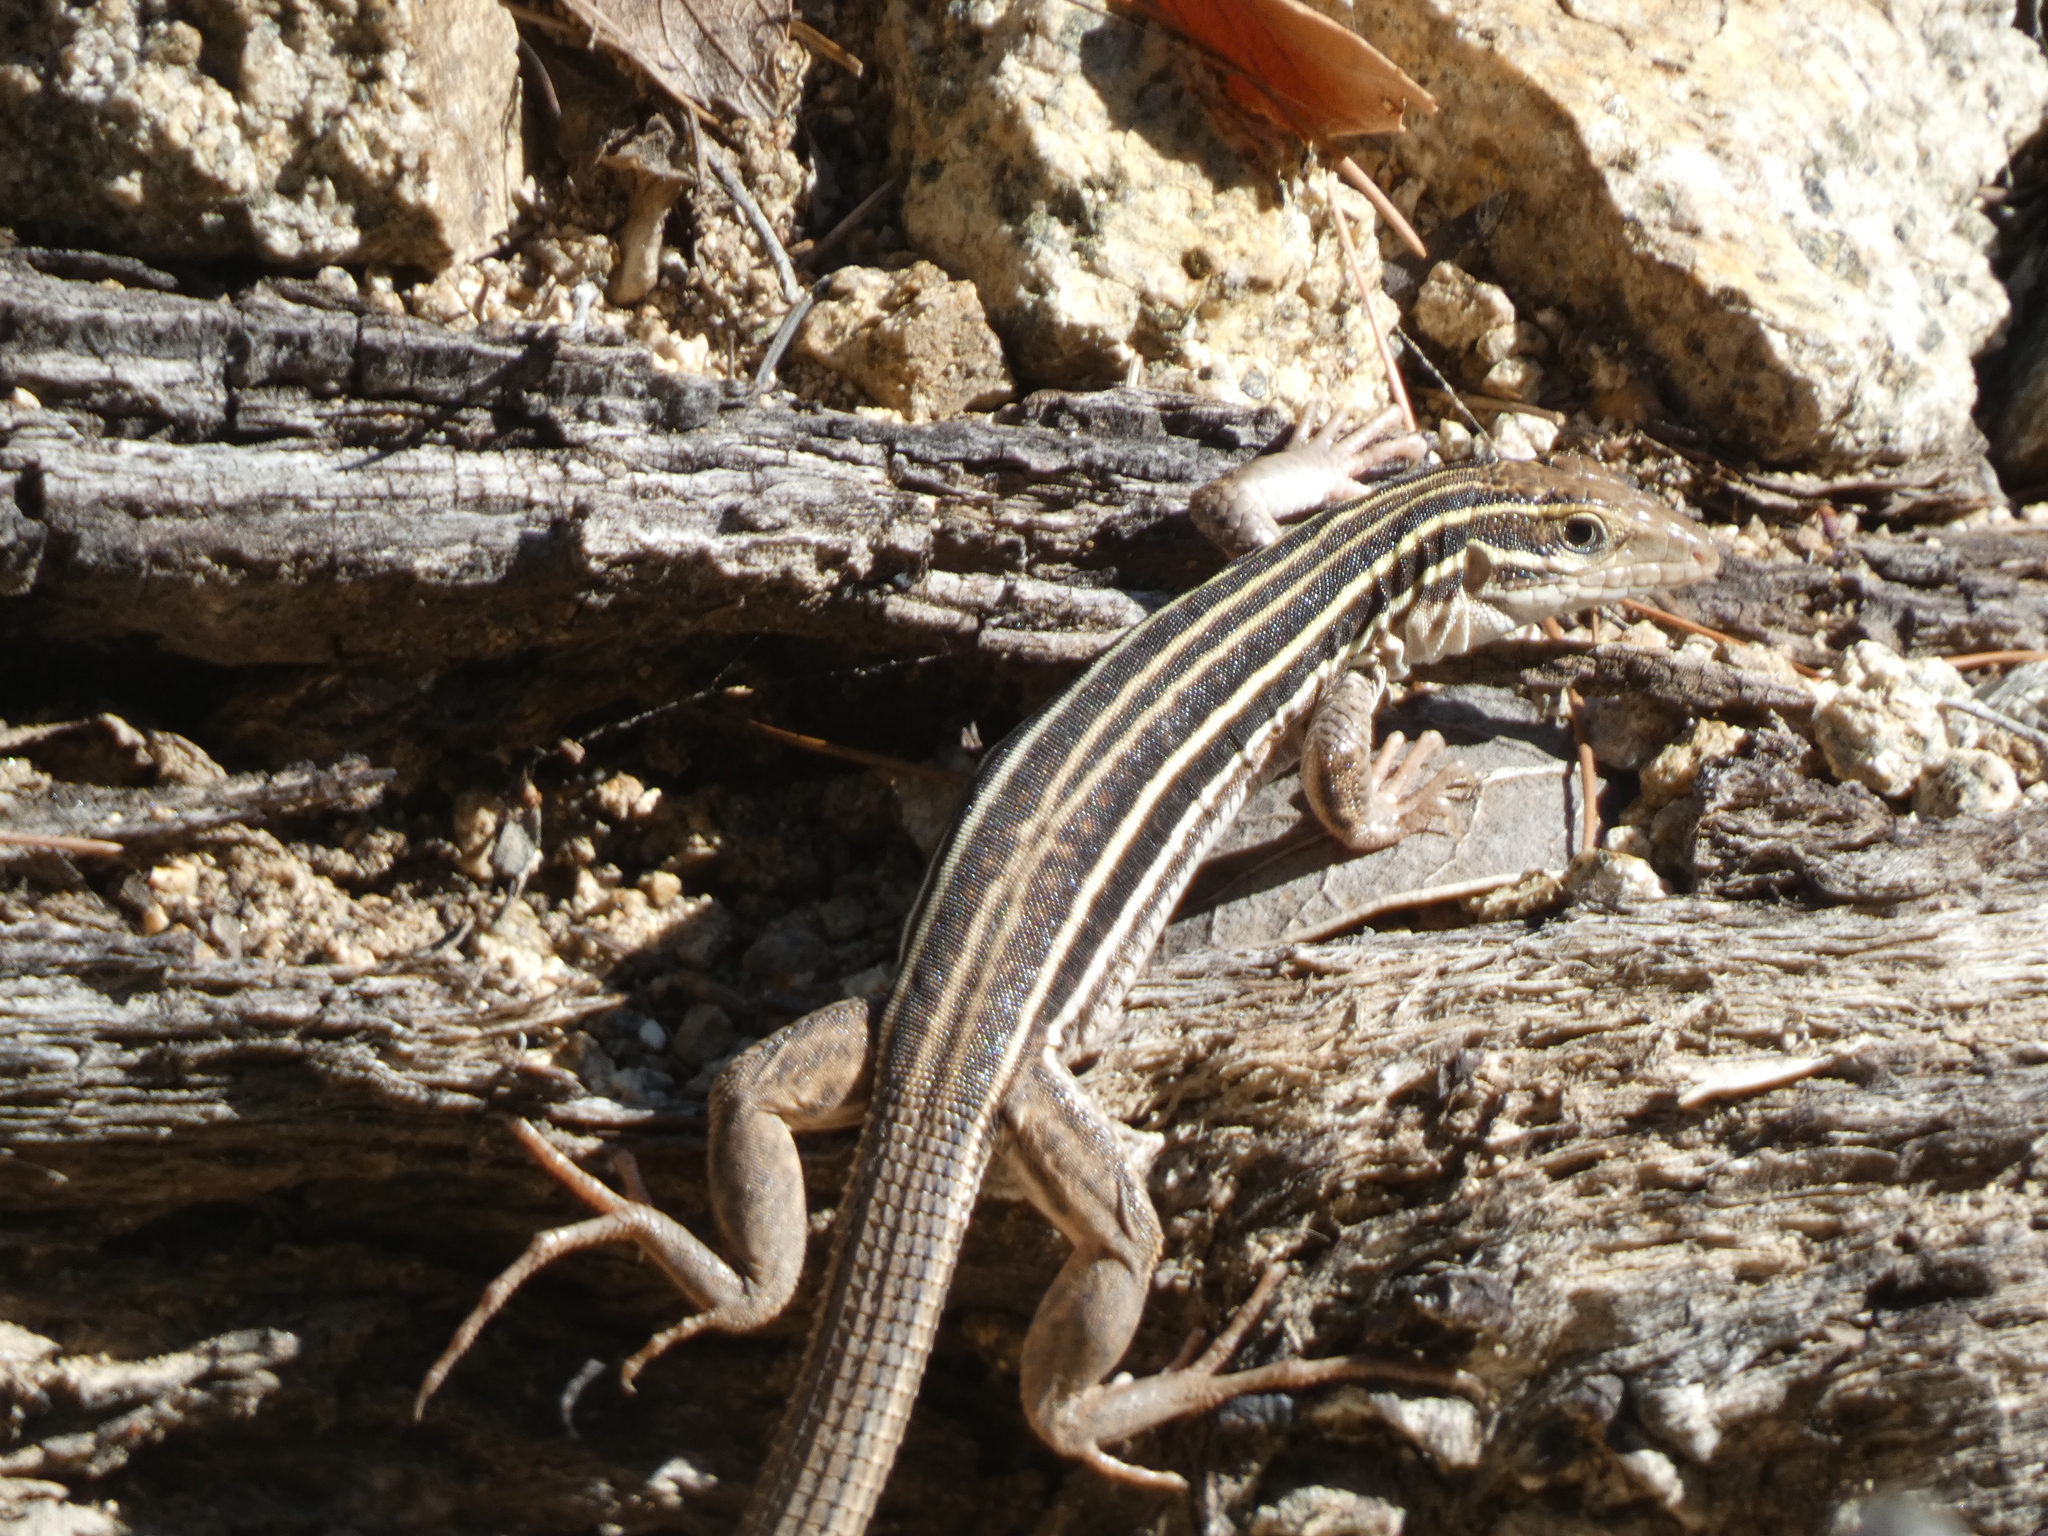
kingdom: Animalia
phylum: Chordata
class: Squamata
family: Teiidae
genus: Aspidoscelis
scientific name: Aspidoscelis sonorae
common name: Sonoran spotted whiptail
